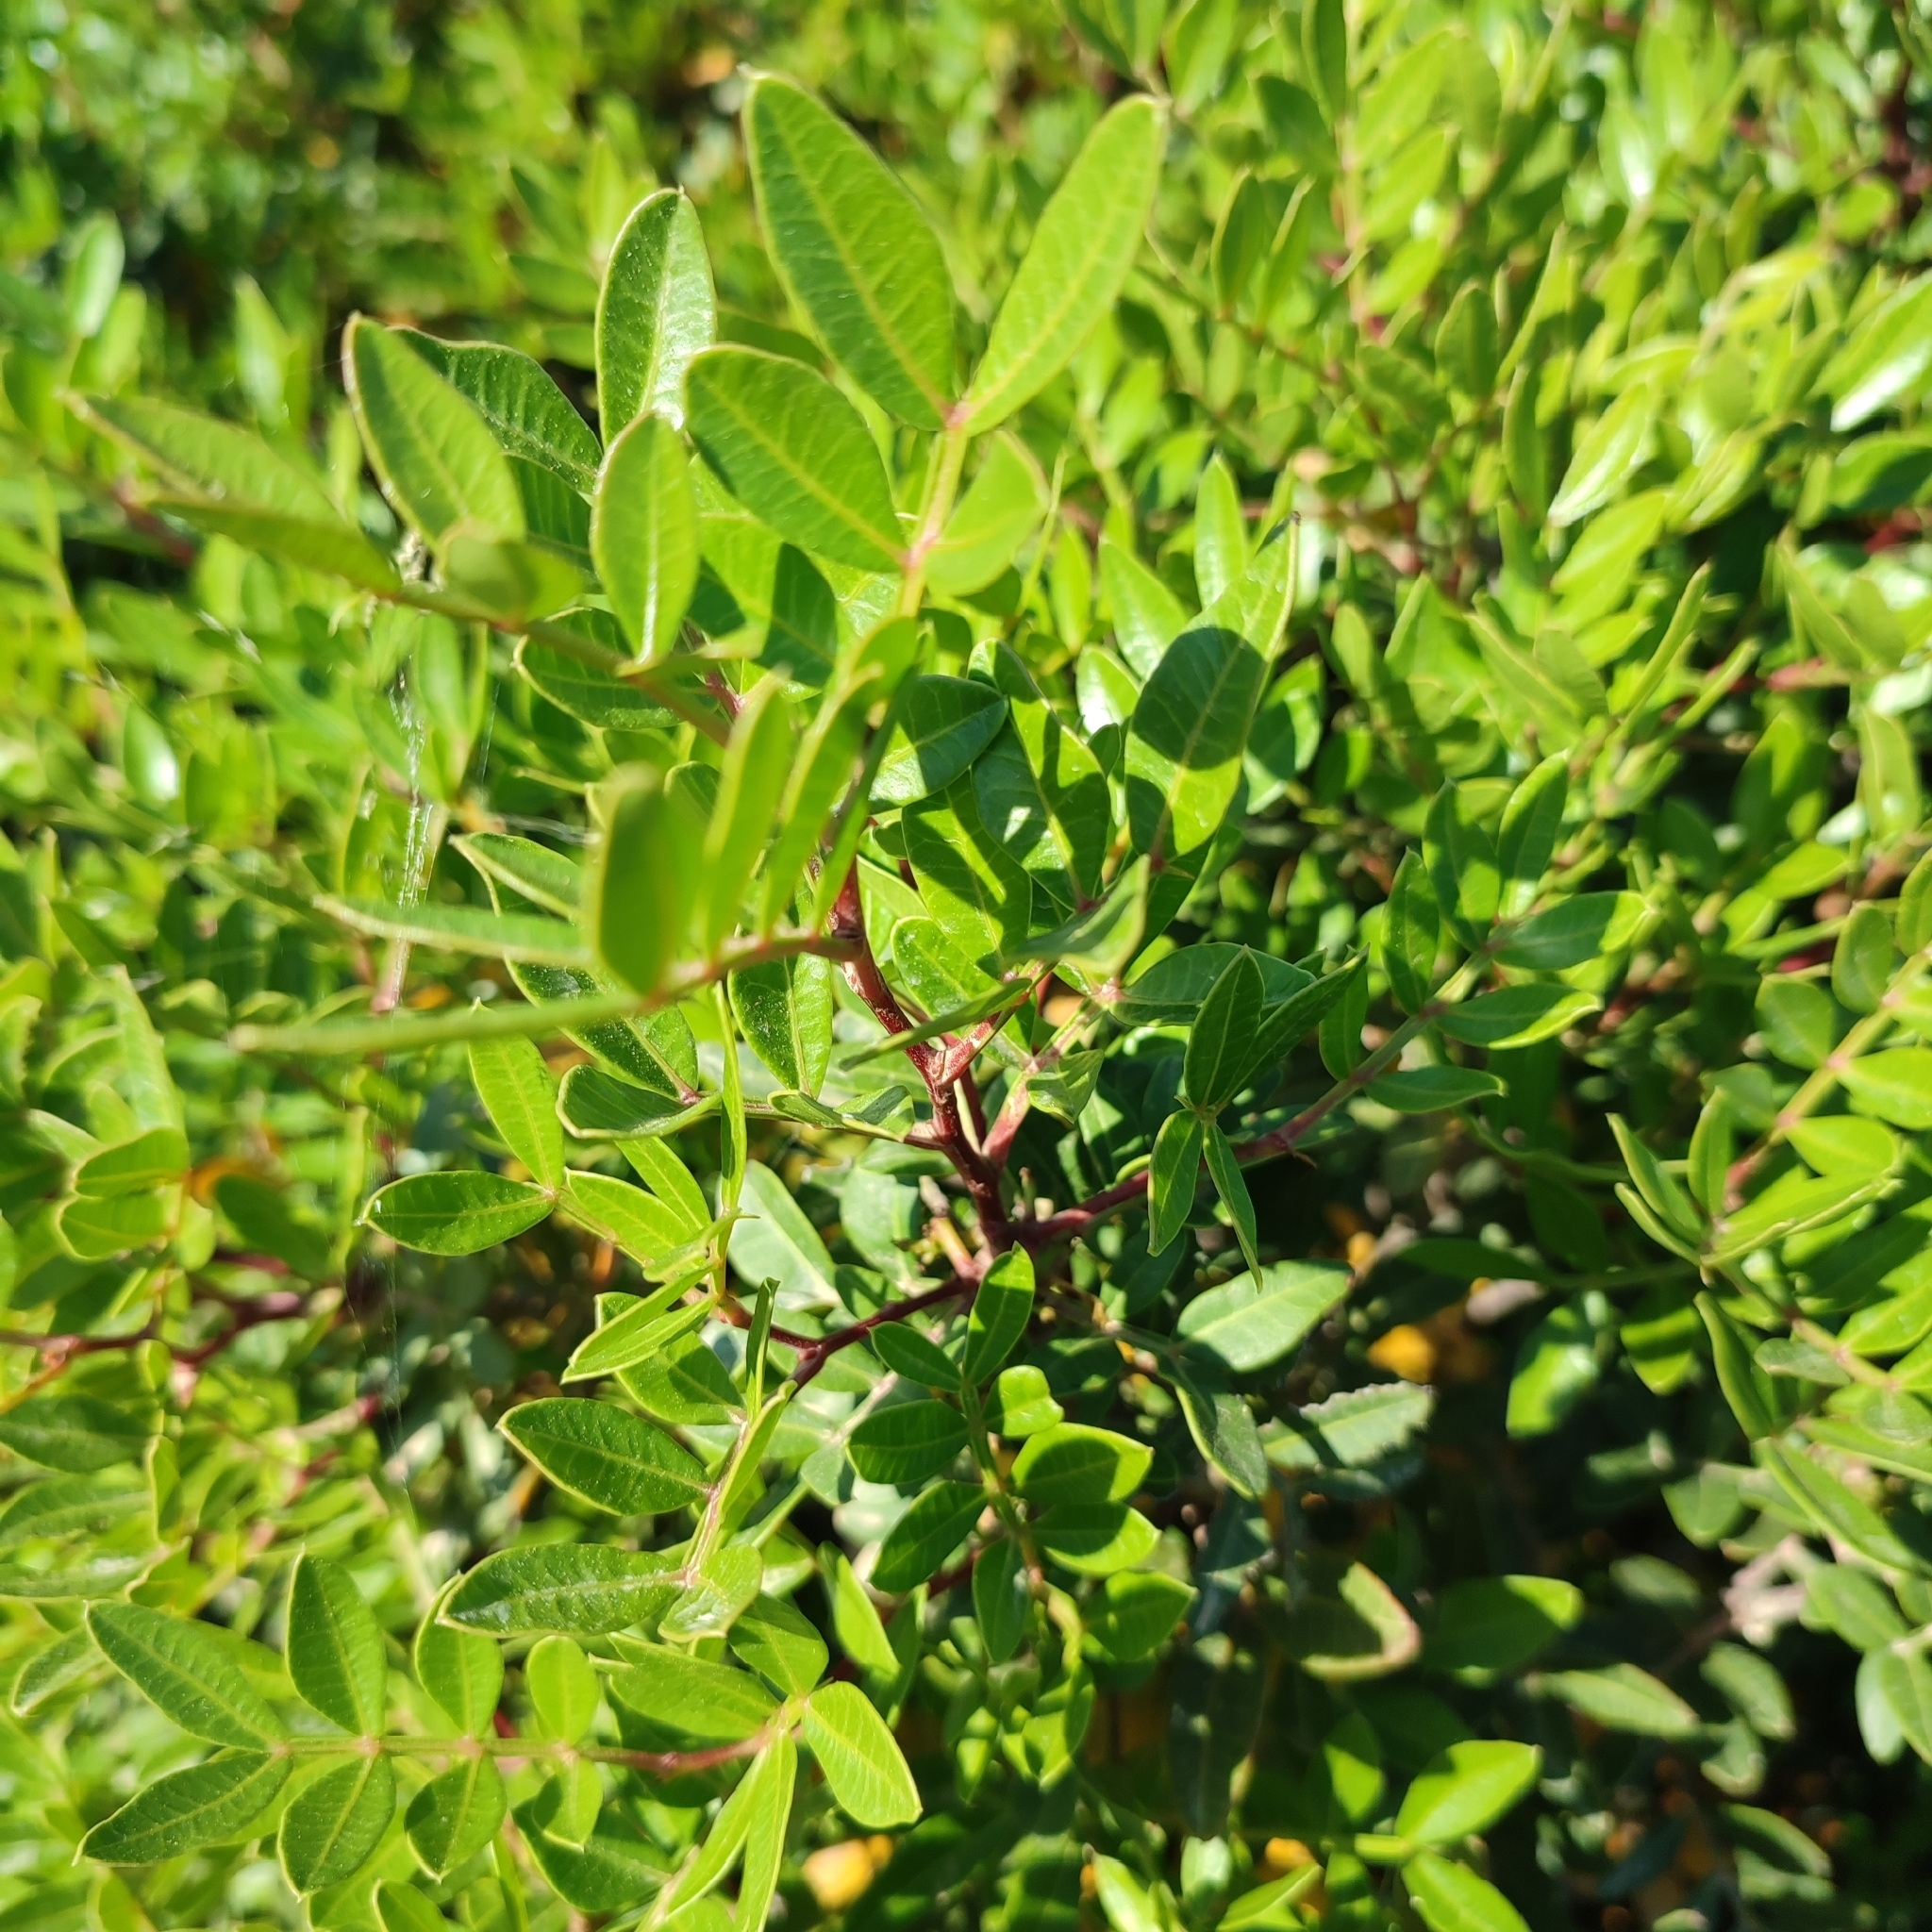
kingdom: Plantae
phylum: Tracheophyta
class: Magnoliopsida
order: Sapindales
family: Anacardiaceae
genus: Pistacia
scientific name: Pistacia lentiscus
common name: Lentisk
